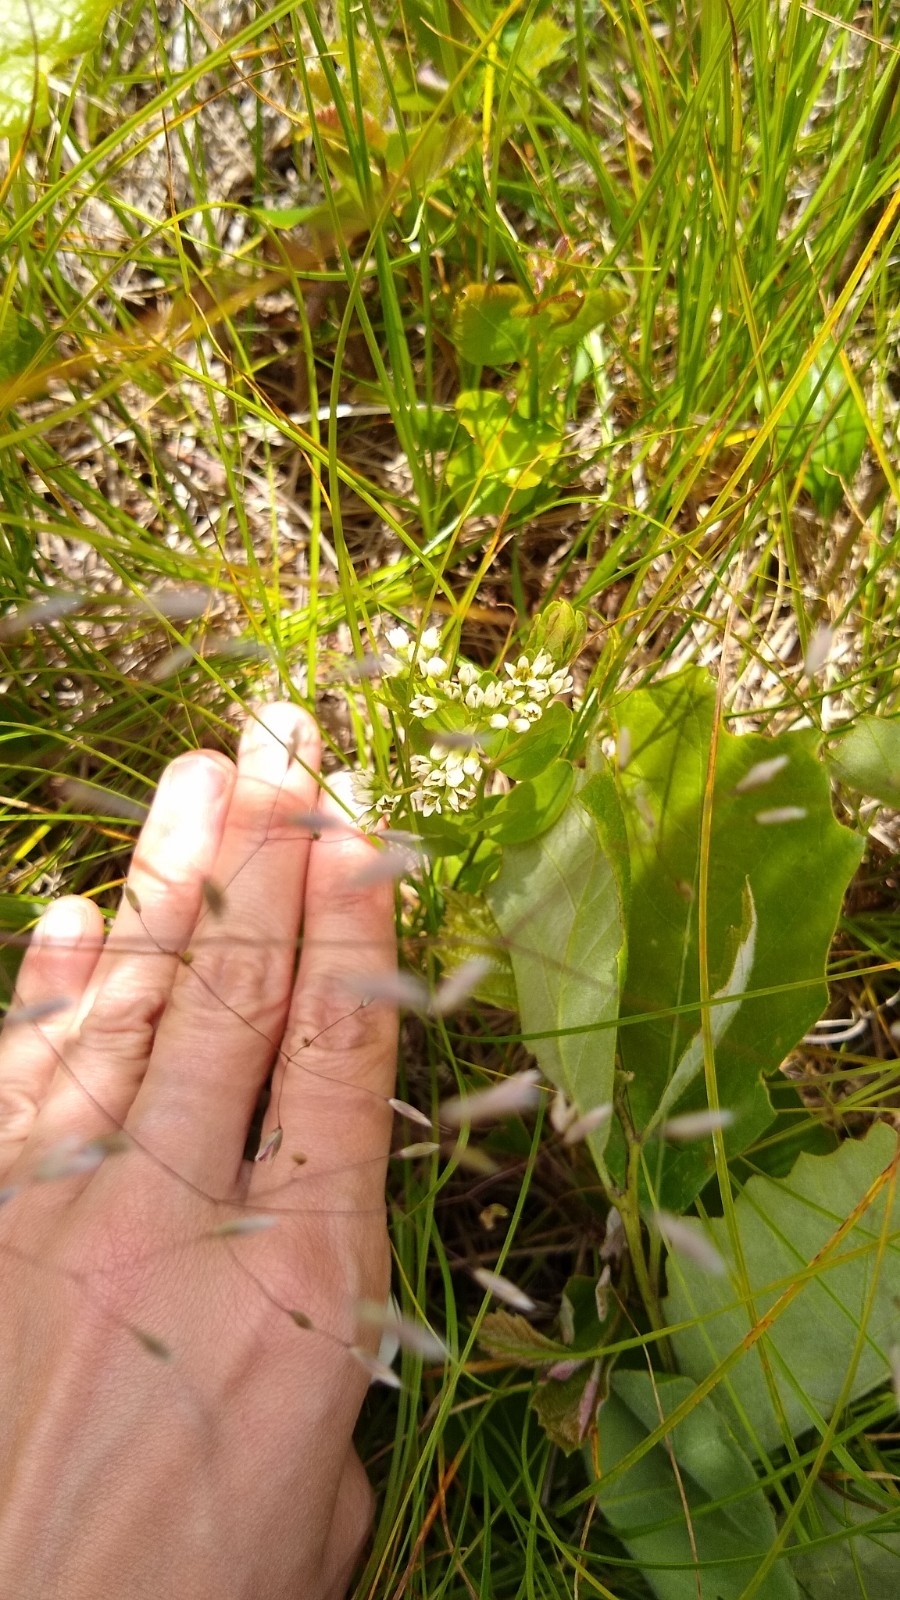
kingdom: Plantae
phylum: Tracheophyta
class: Magnoliopsida
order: Santalales
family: Comandraceae
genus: Comandra
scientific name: Comandra umbellata
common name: Bastard toadflax
